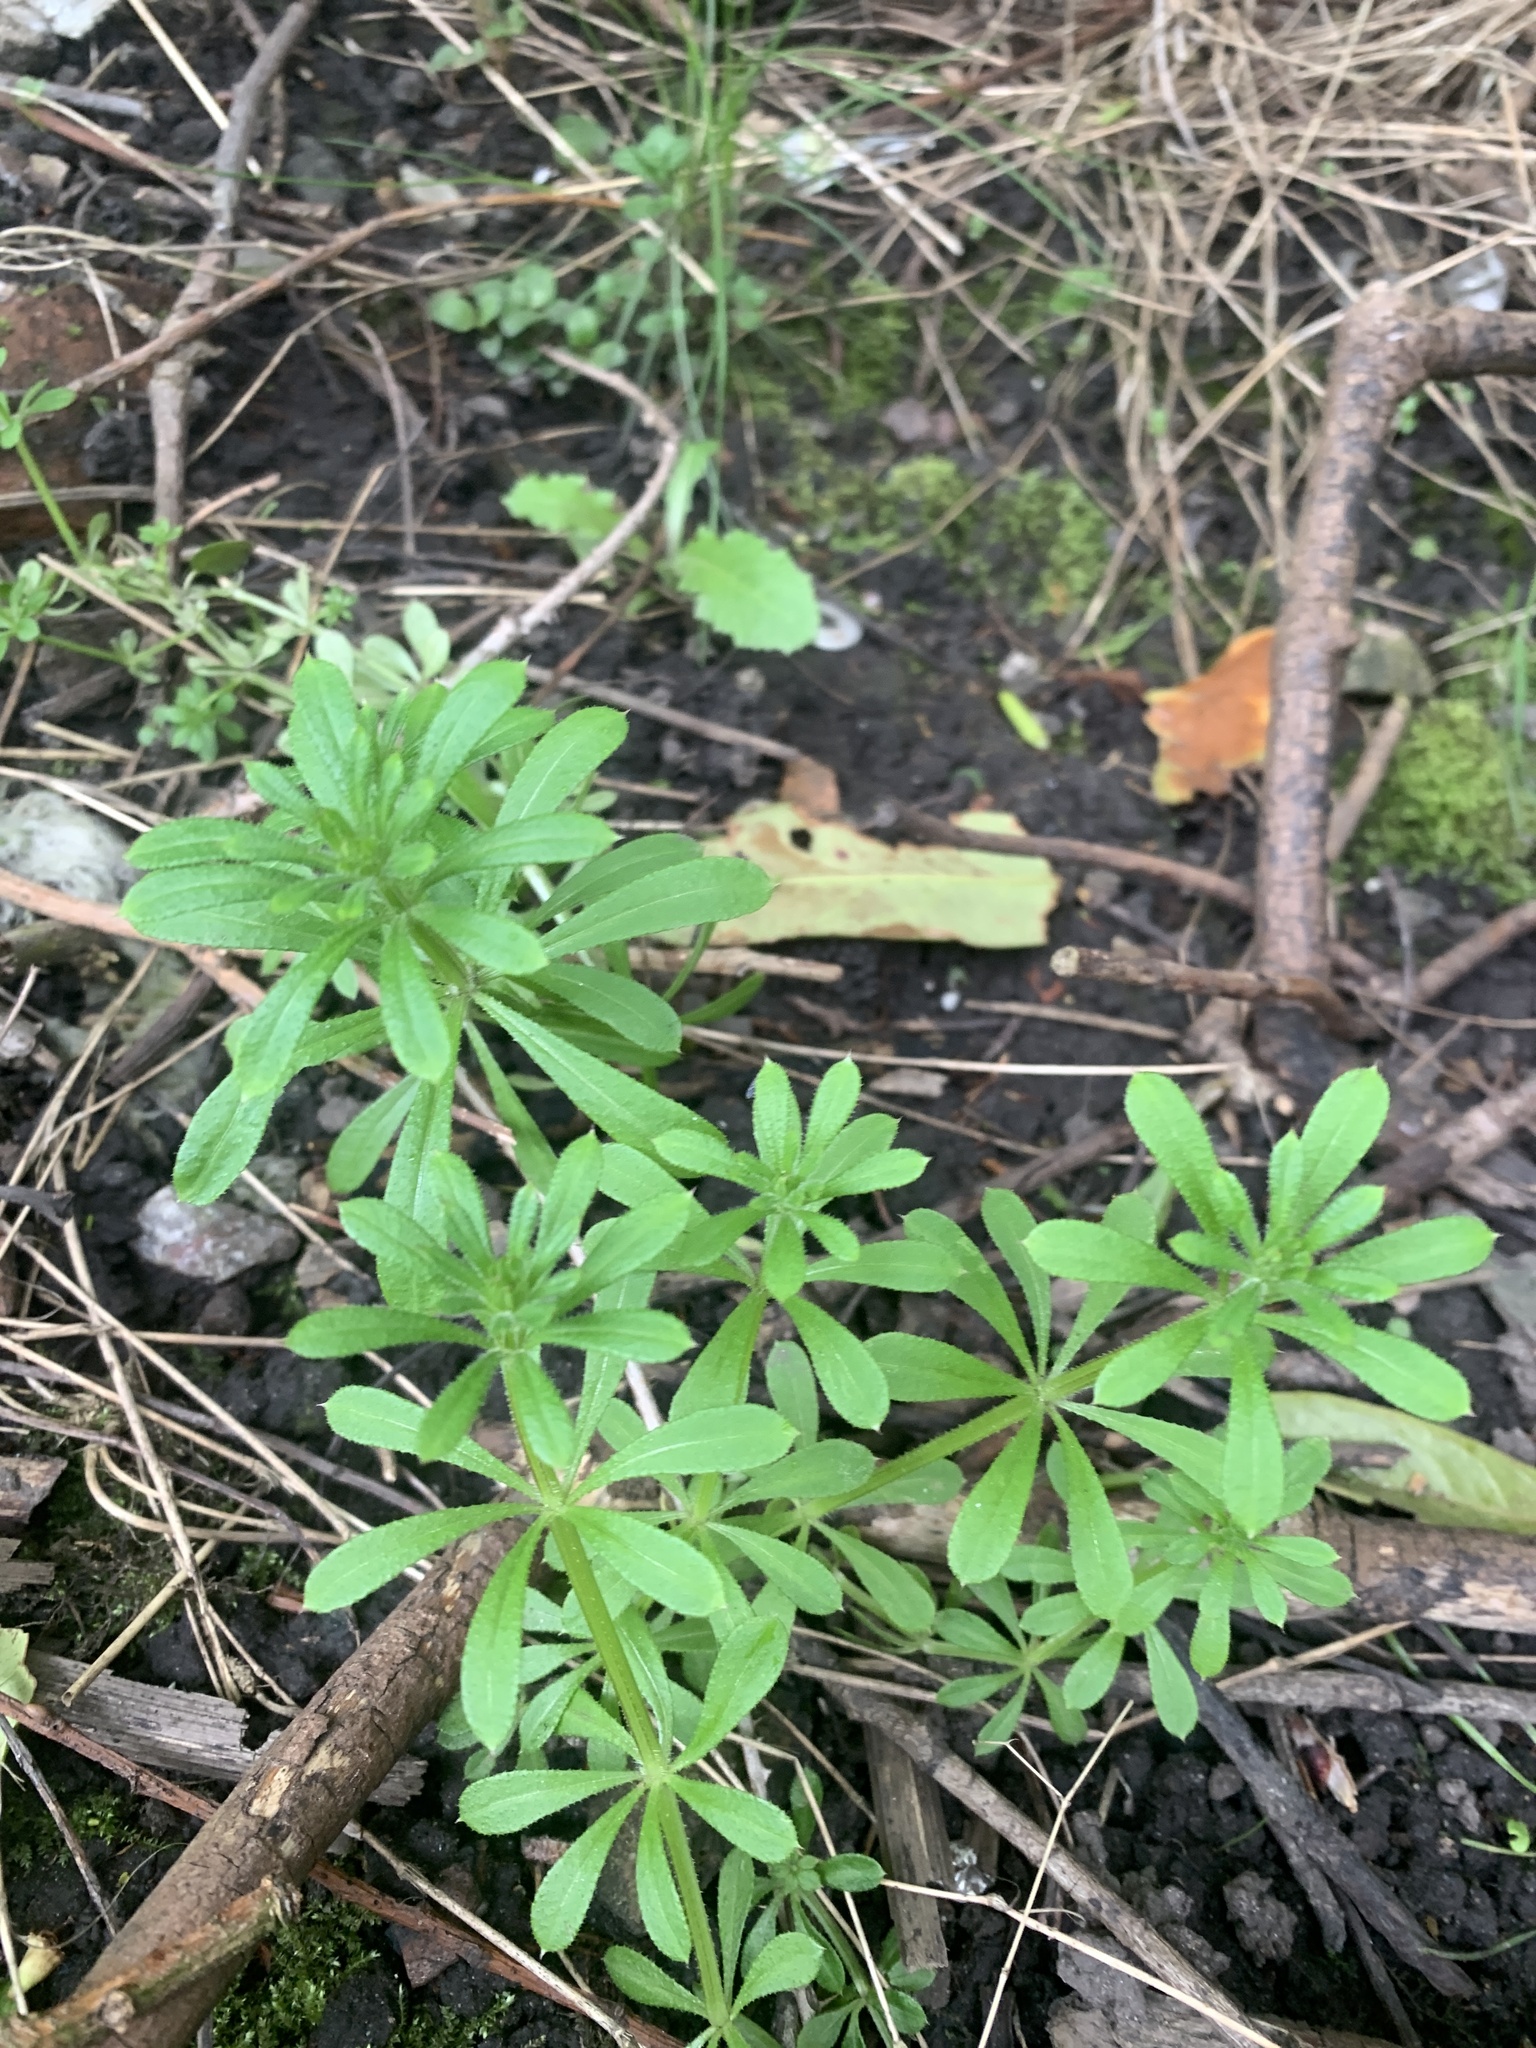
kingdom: Plantae
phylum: Tracheophyta
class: Magnoliopsida
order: Gentianales
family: Rubiaceae
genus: Galium
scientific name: Galium aparine
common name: Cleavers
